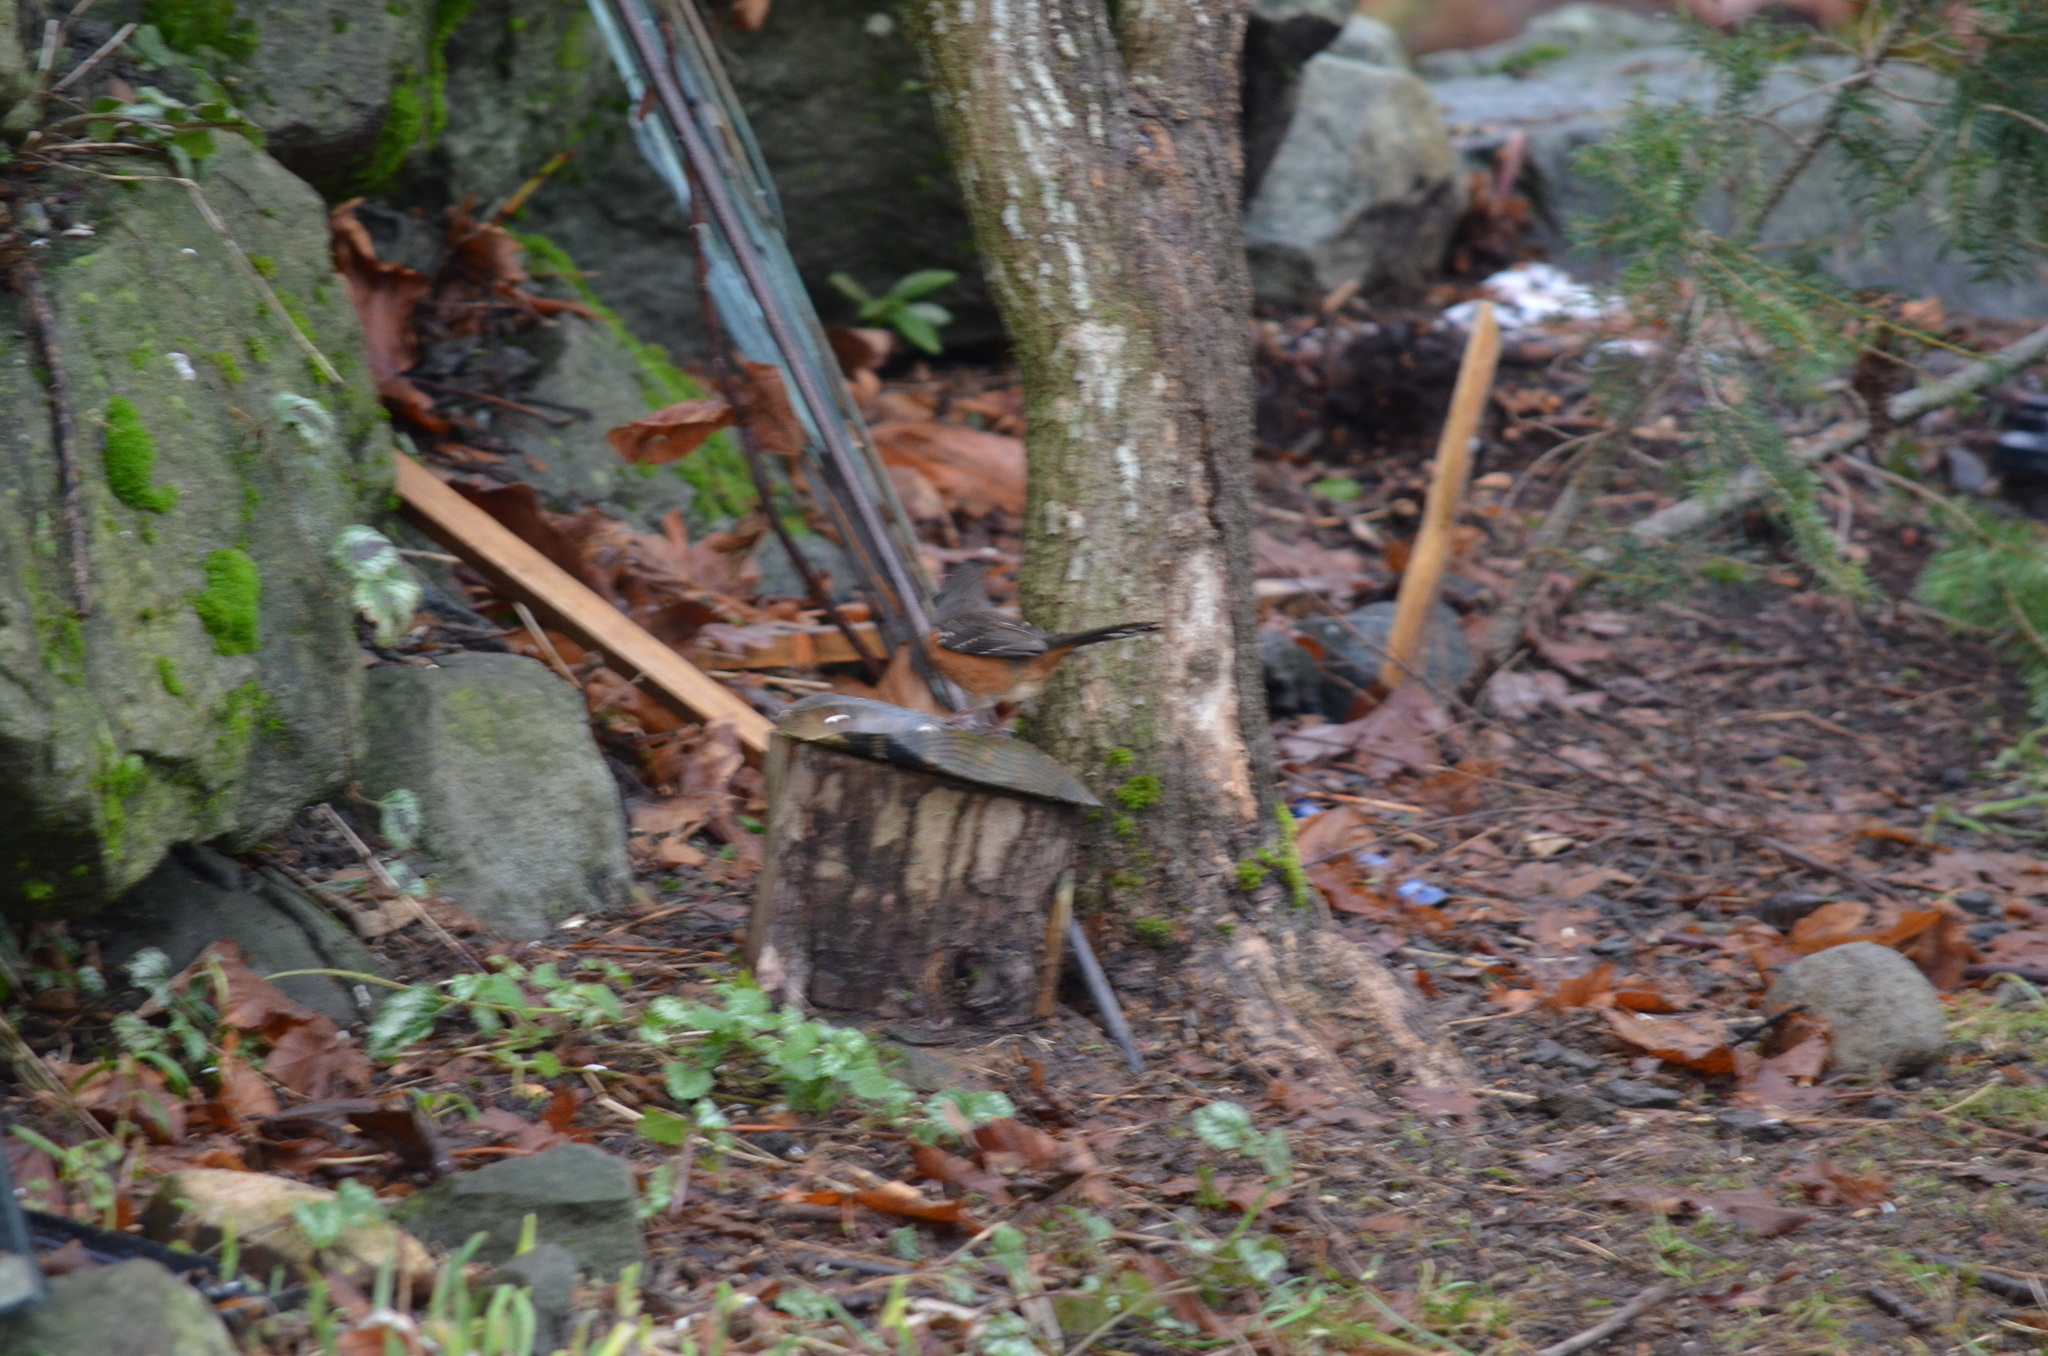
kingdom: Animalia
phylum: Chordata
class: Aves
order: Passeriformes
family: Passerellidae
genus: Pipilo
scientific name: Pipilo maculatus
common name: Spotted towhee
